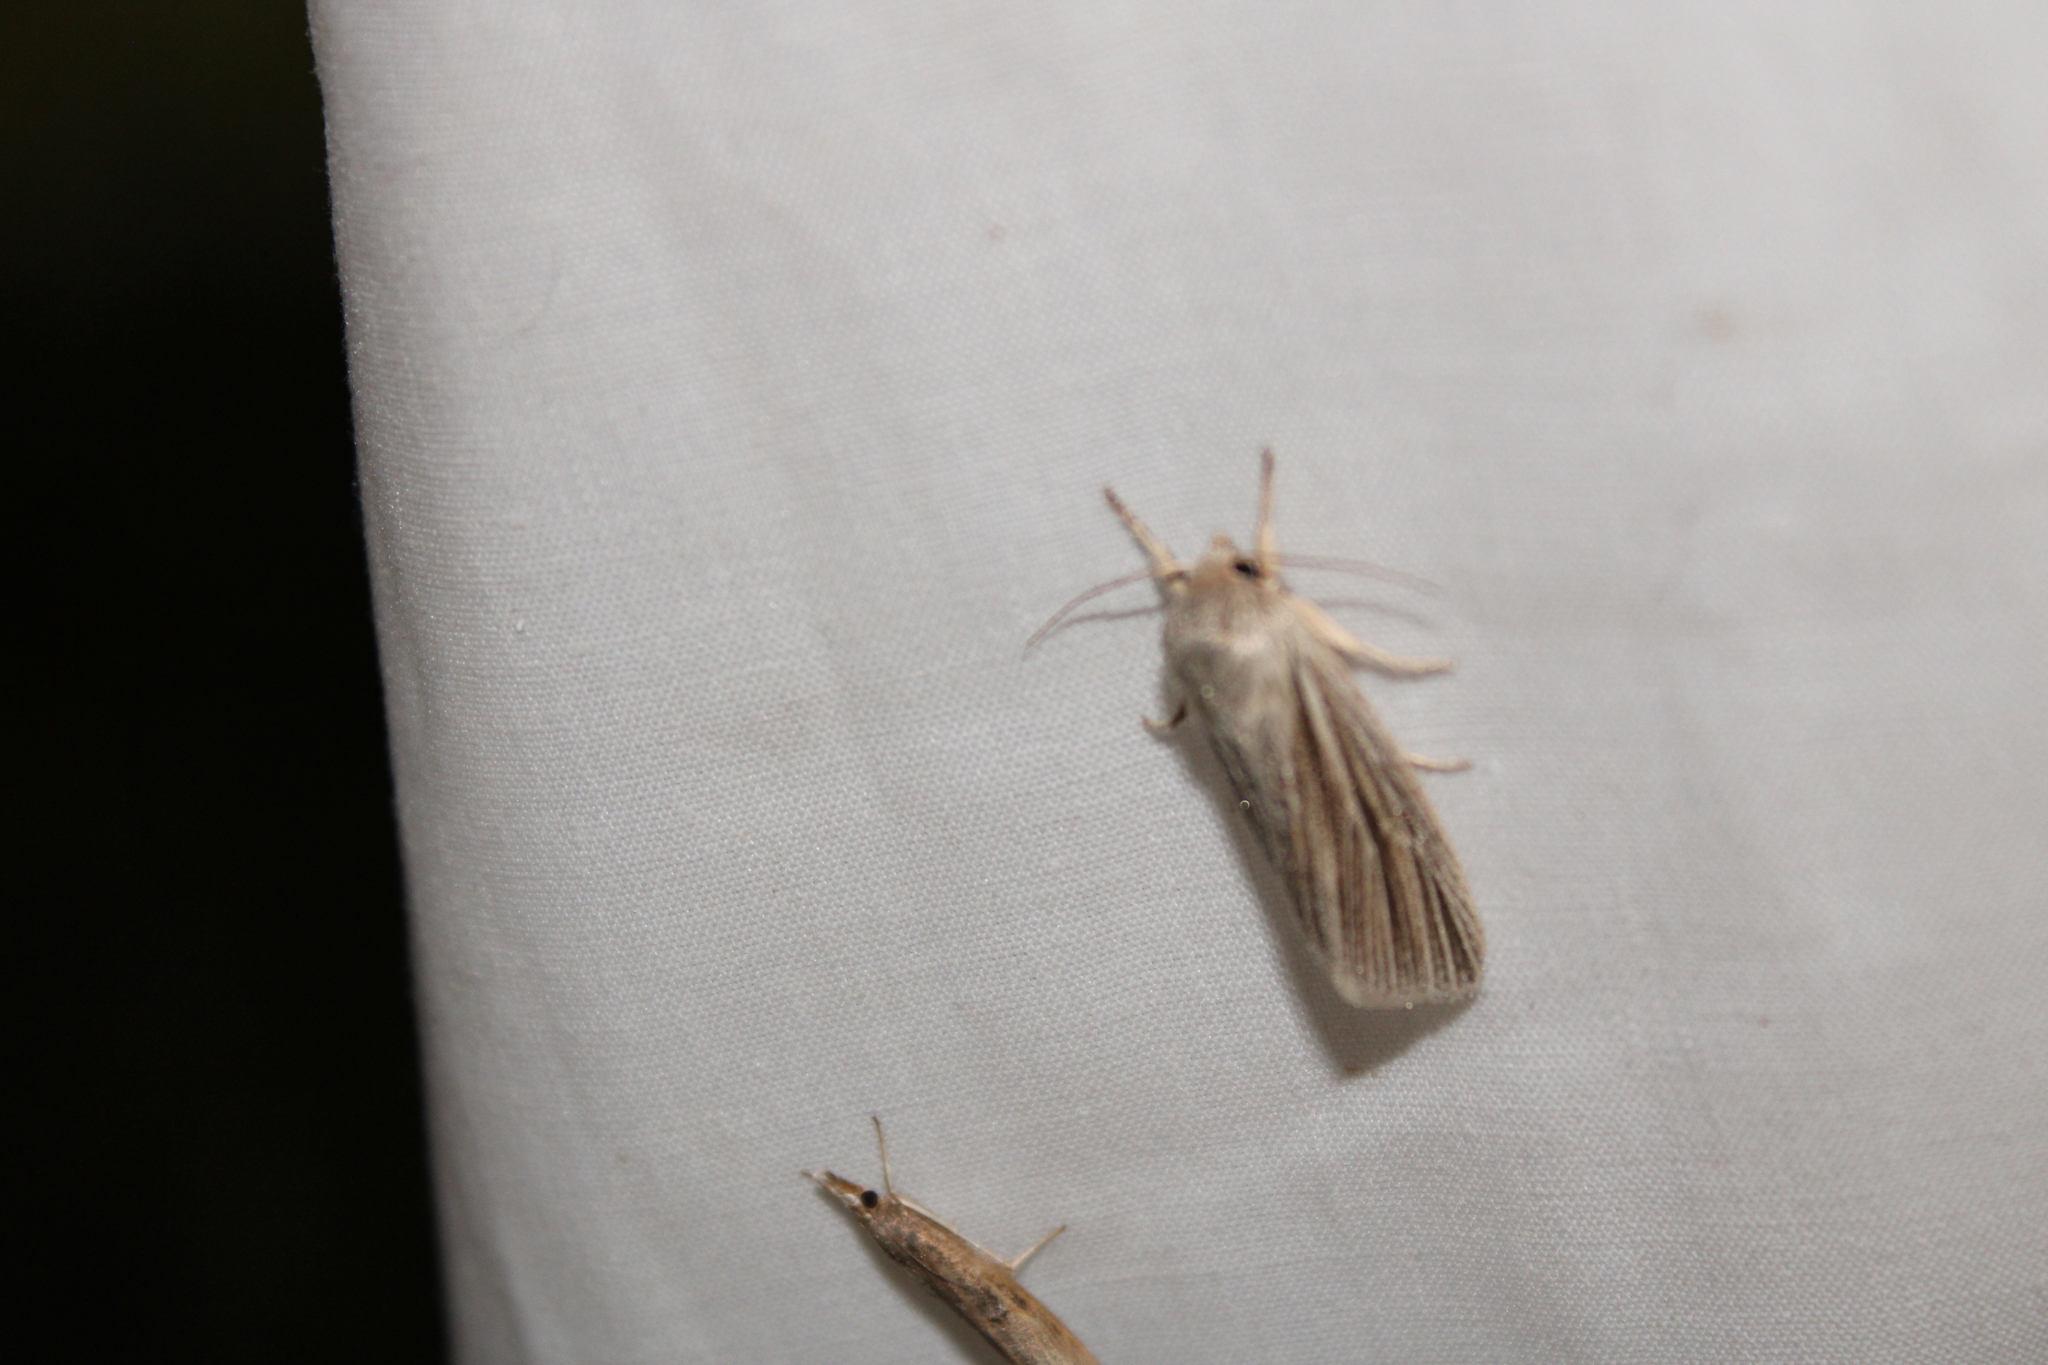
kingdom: Animalia
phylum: Arthropoda
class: Insecta
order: Lepidoptera
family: Noctuidae
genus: Acronicta
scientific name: Acronicta insularis
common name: Henry's marsh moth
